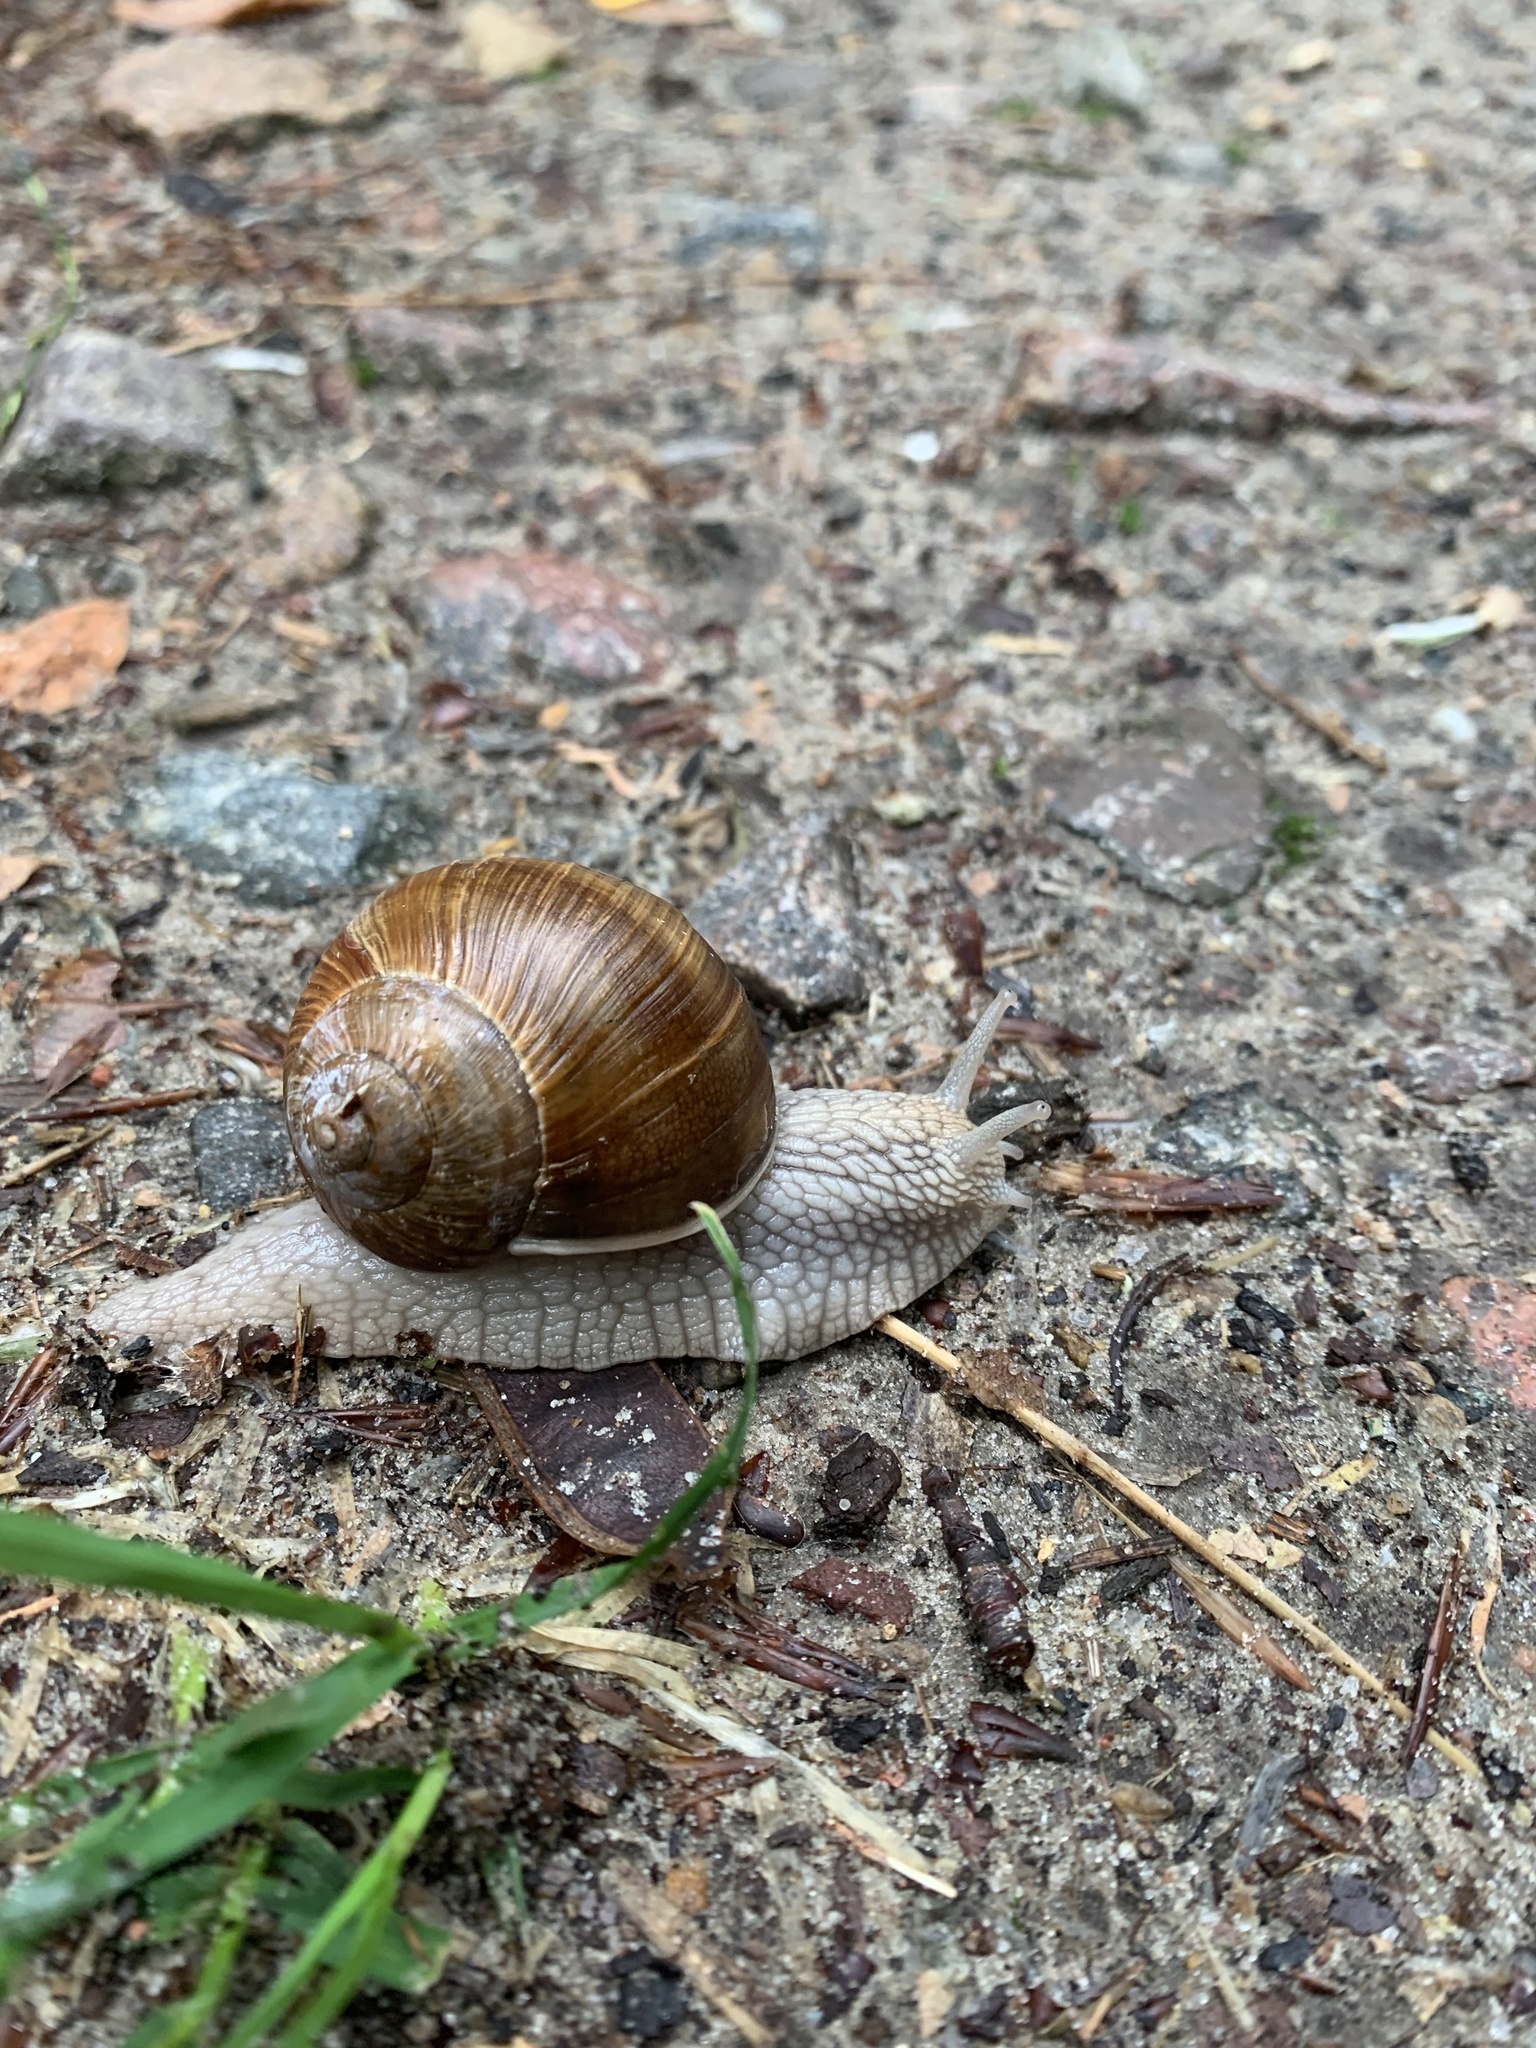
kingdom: Animalia
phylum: Mollusca
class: Gastropoda
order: Stylommatophora
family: Helicidae
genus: Helix
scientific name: Helix pomatia
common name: Roman snail
